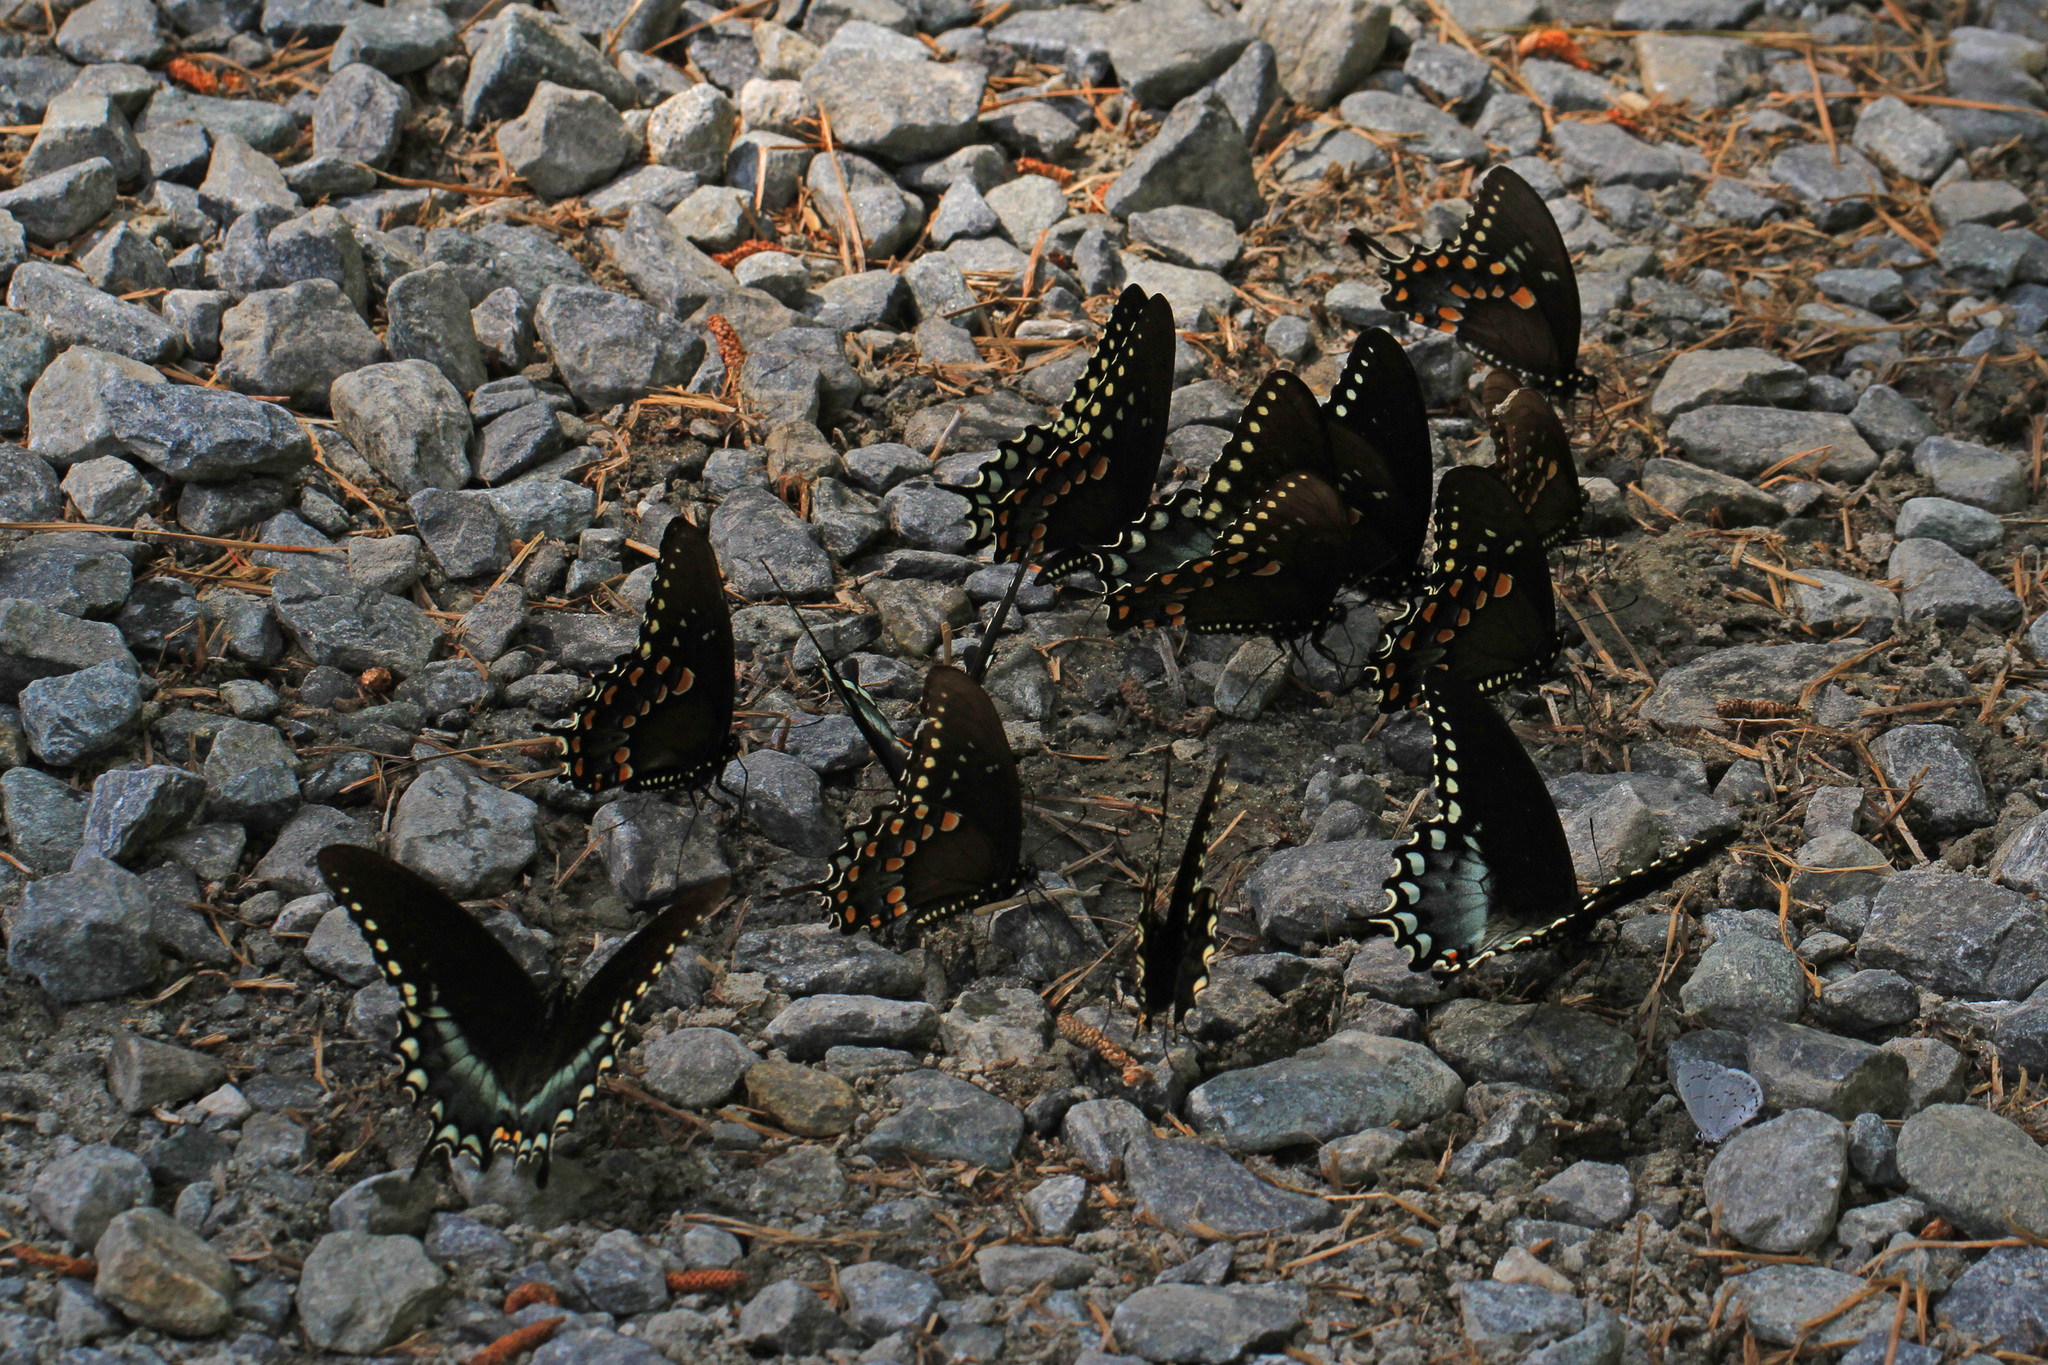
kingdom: Animalia
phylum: Arthropoda
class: Insecta
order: Lepidoptera
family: Papilionidae
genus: Papilio
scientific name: Papilio troilus
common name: Spicebush swallowtail
